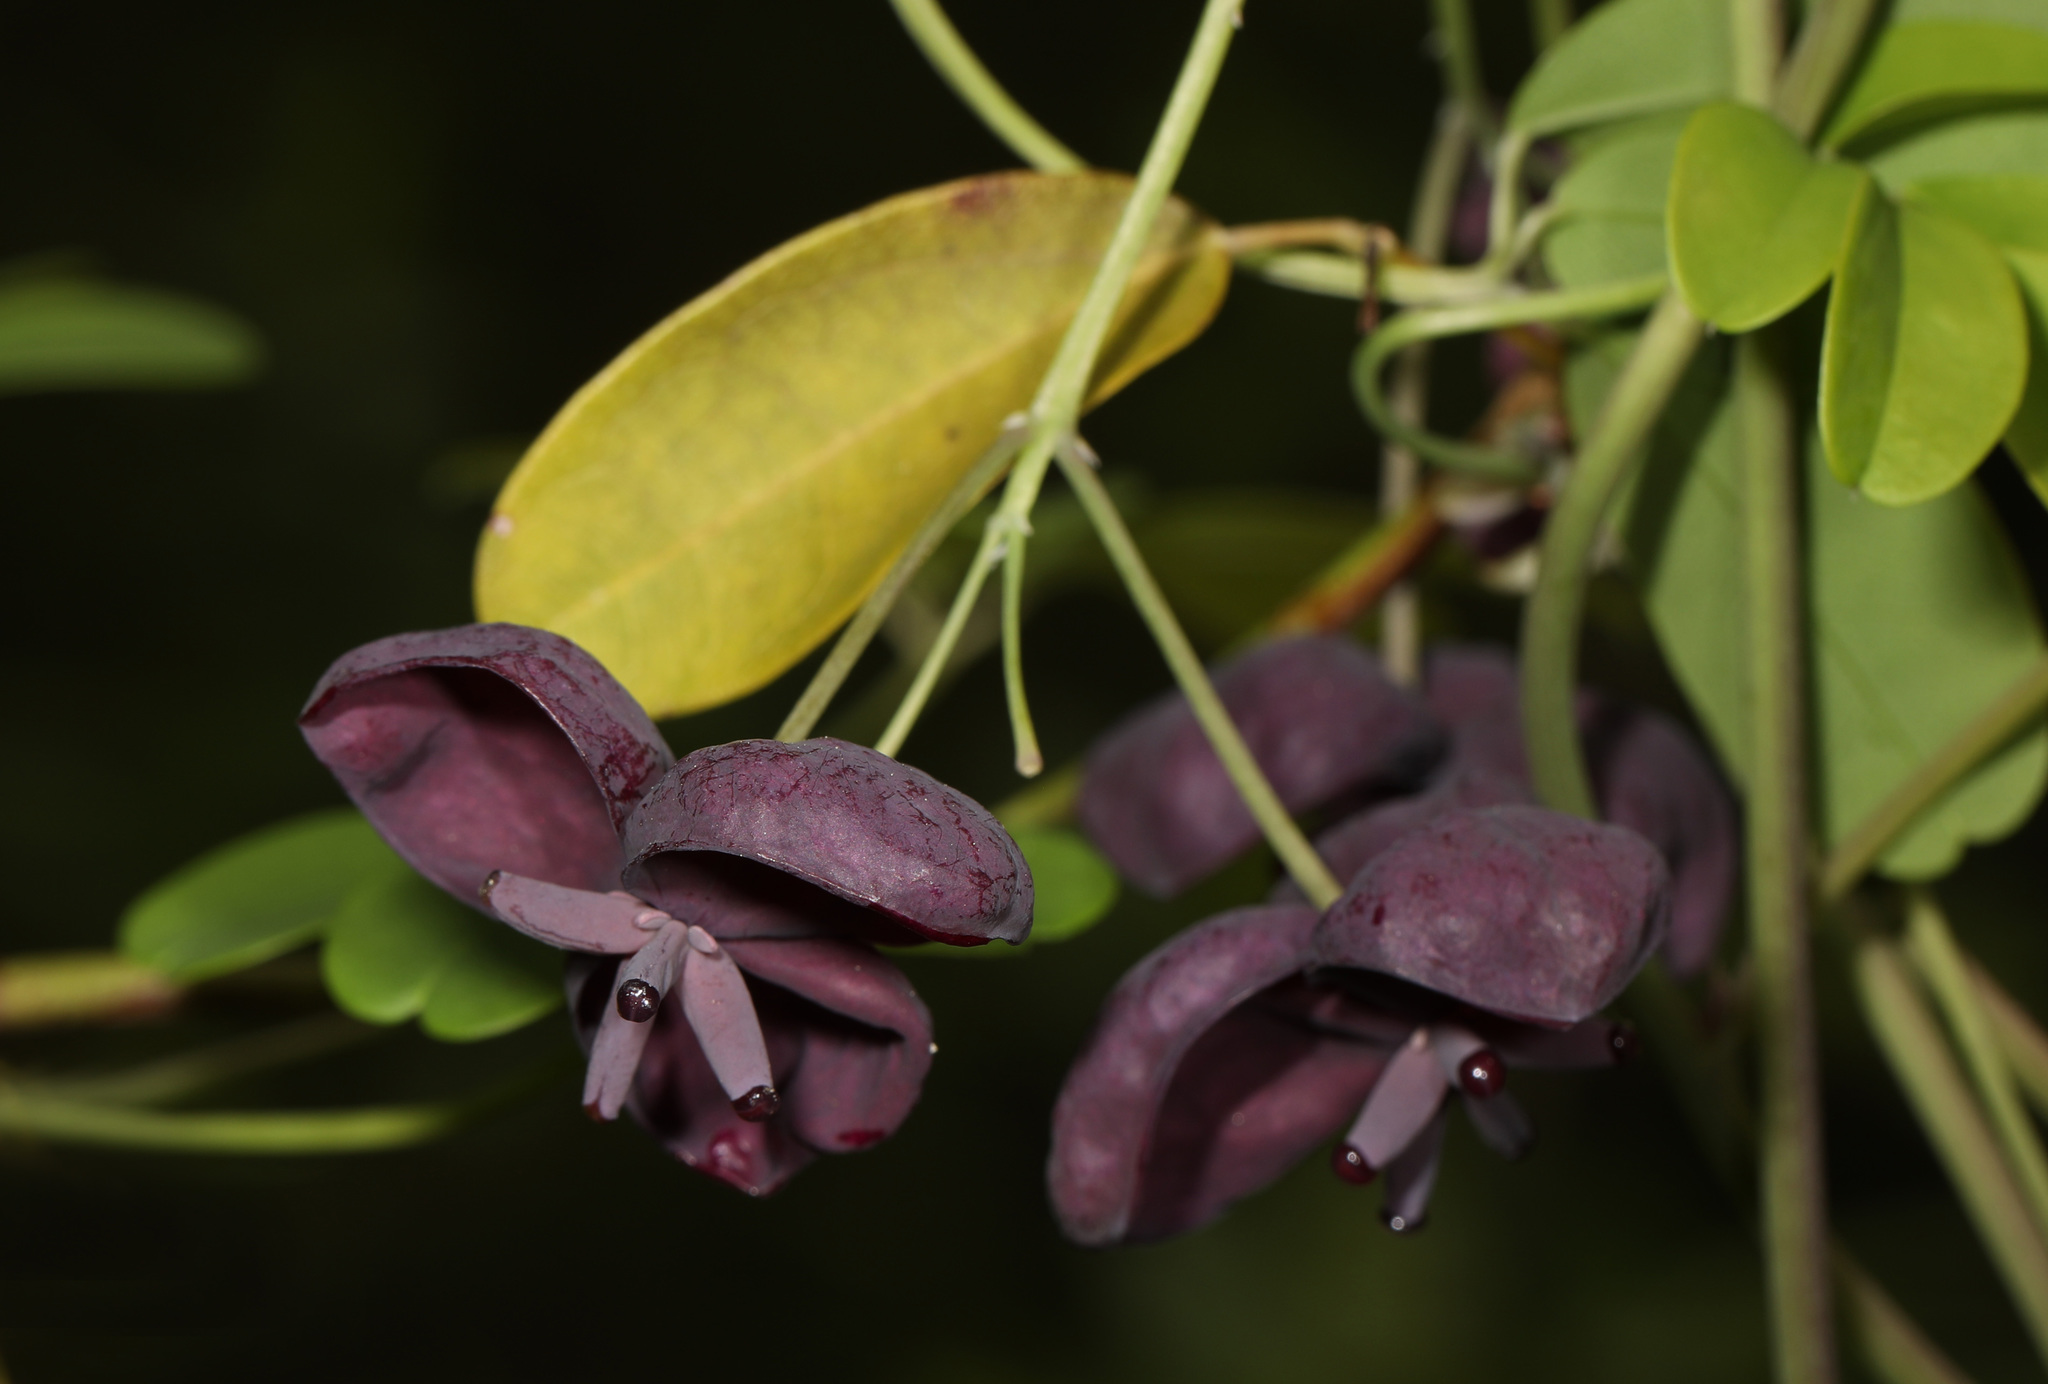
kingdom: Plantae
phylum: Tracheophyta
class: Magnoliopsida
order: Ranunculales
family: Lardizabalaceae
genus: Akebia
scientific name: Akebia quinata
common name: Five-leaf akebia
